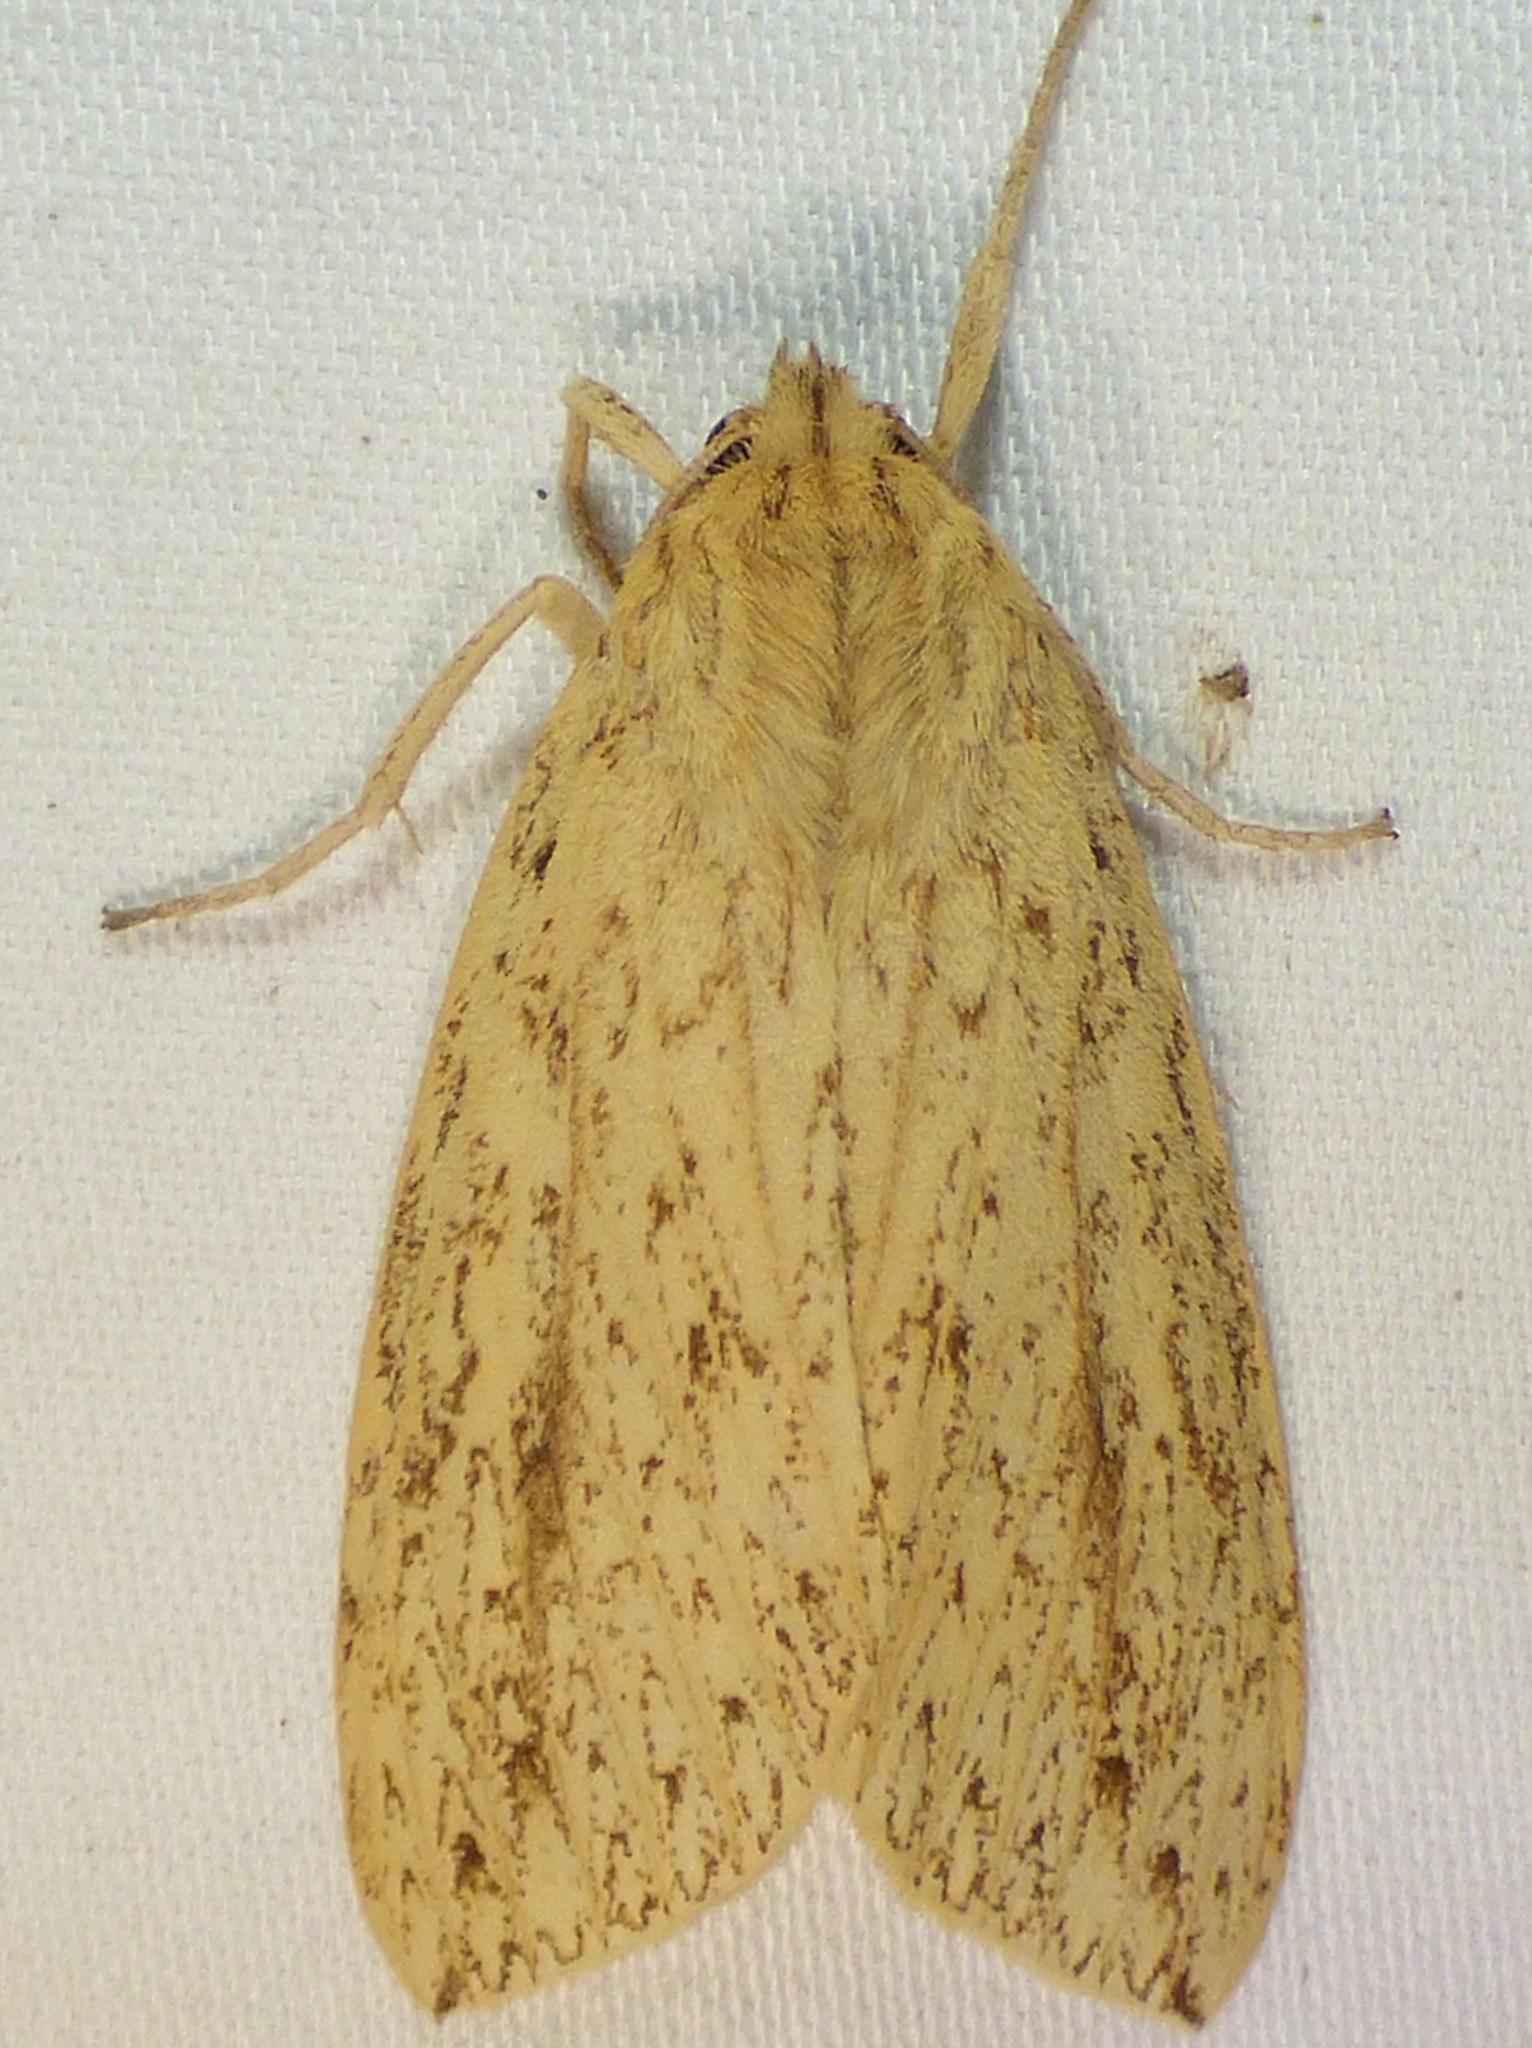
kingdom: Animalia
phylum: Arthropoda
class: Insecta
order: Lepidoptera
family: Erebidae
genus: Leucanopsis
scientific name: Leucanopsis longa
